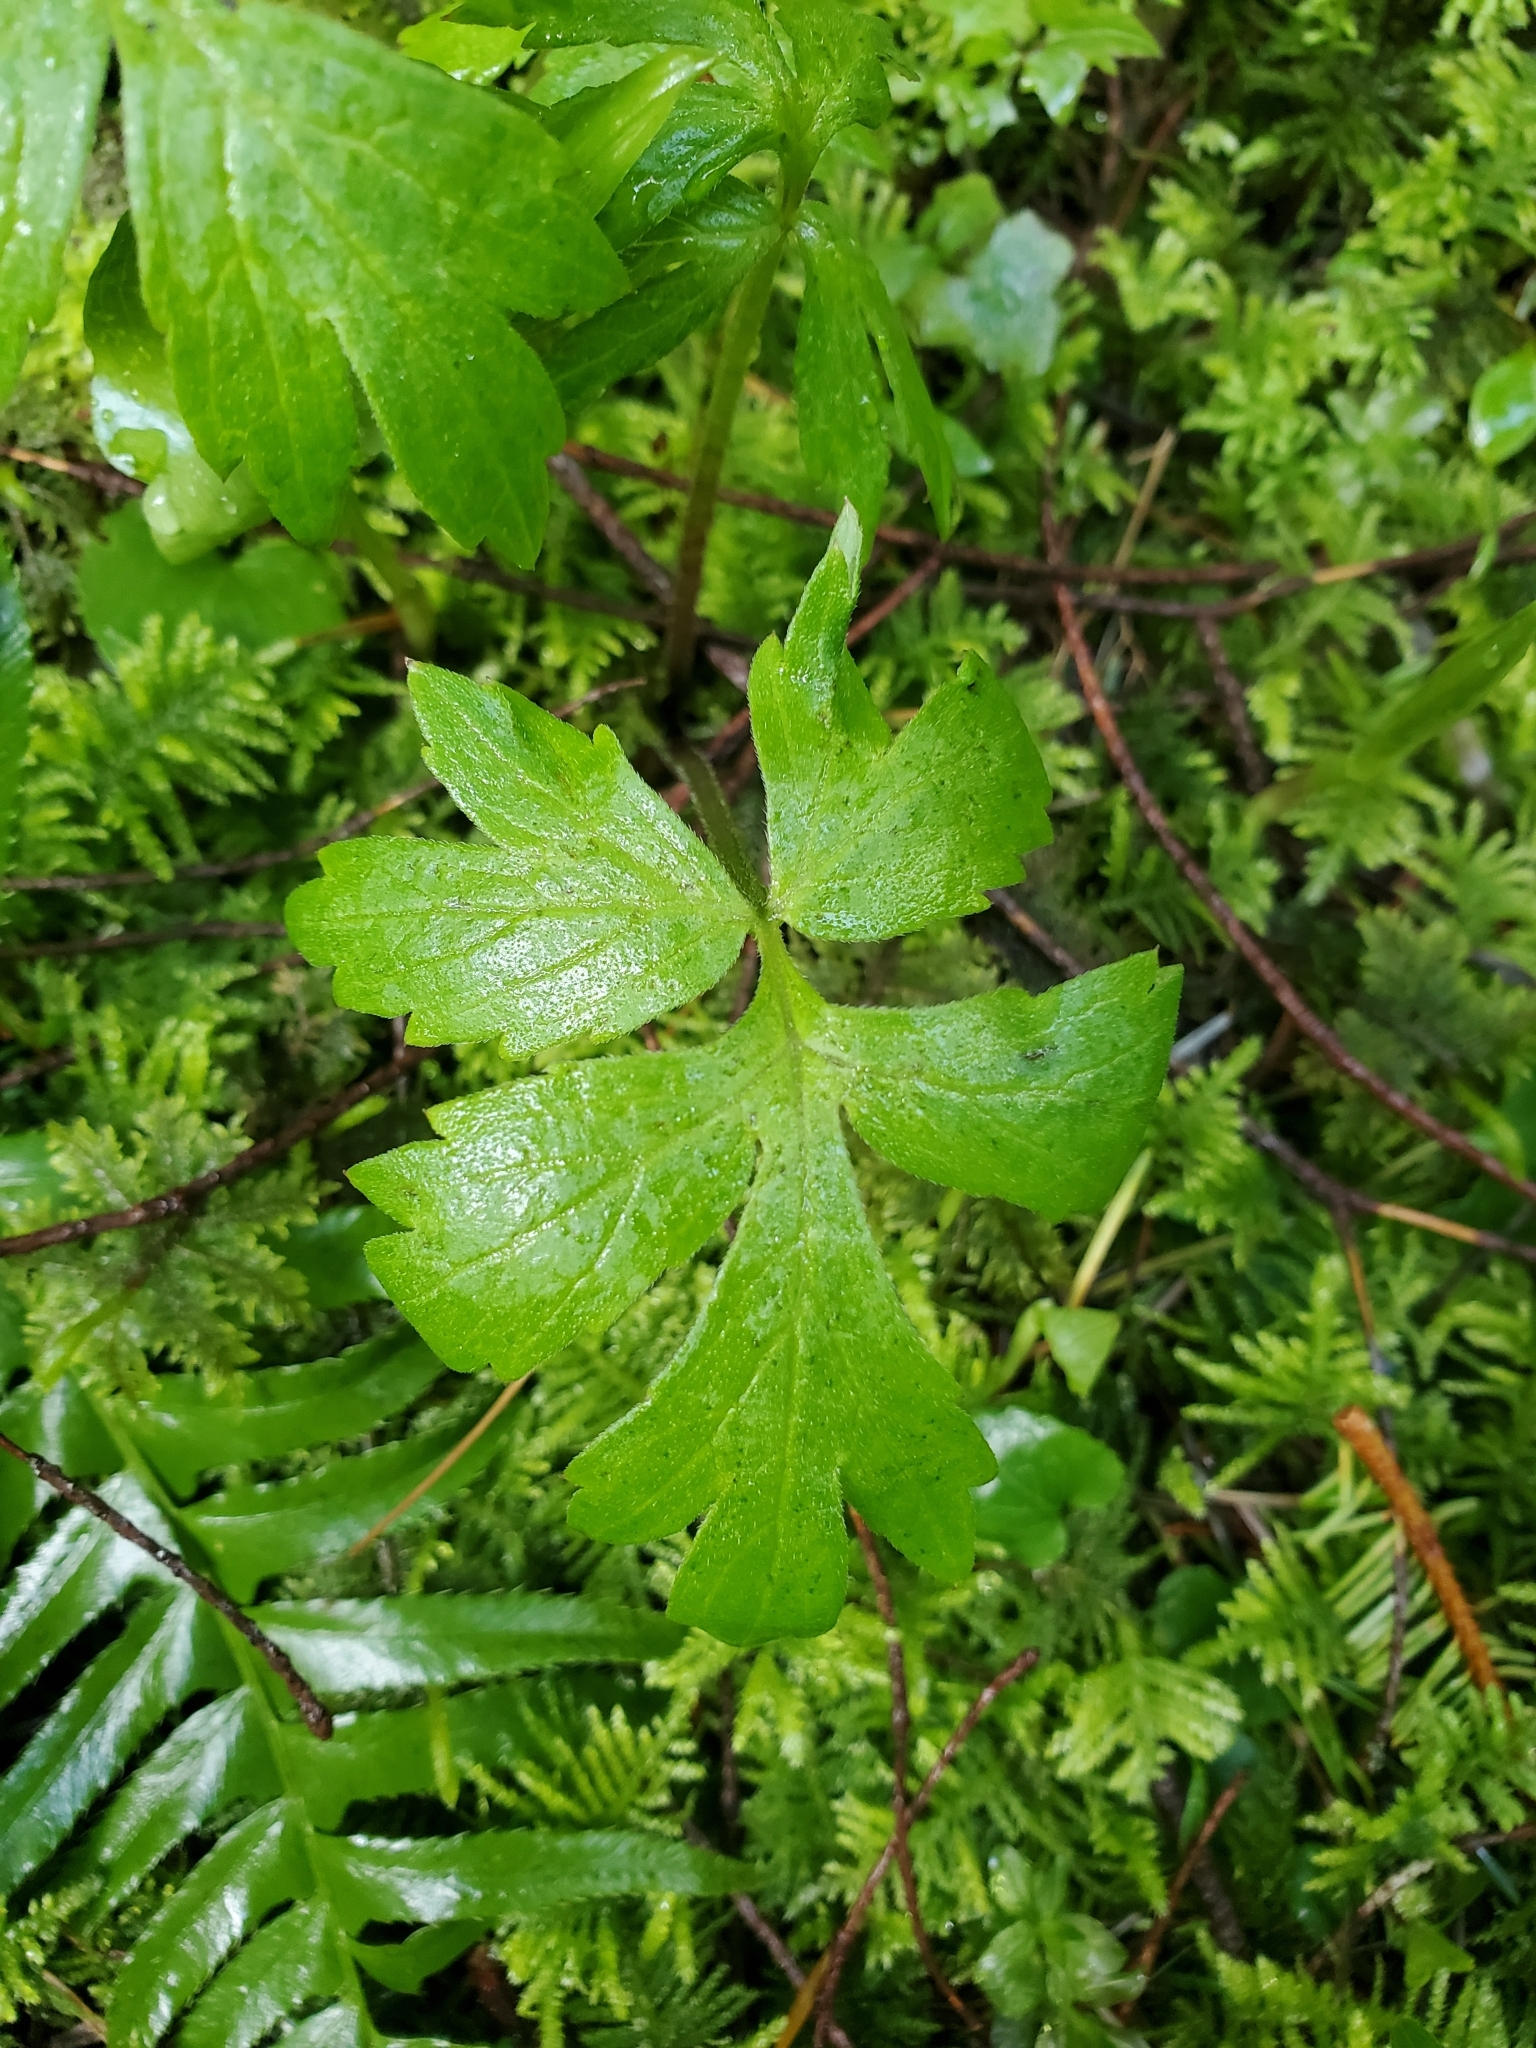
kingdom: Plantae
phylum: Tracheophyta
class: Magnoliopsida
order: Boraginales
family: Hydrophyllaceae
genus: Hydrophyllum
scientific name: Hydrophyllum tenuipes
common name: Pacific waterleaf
